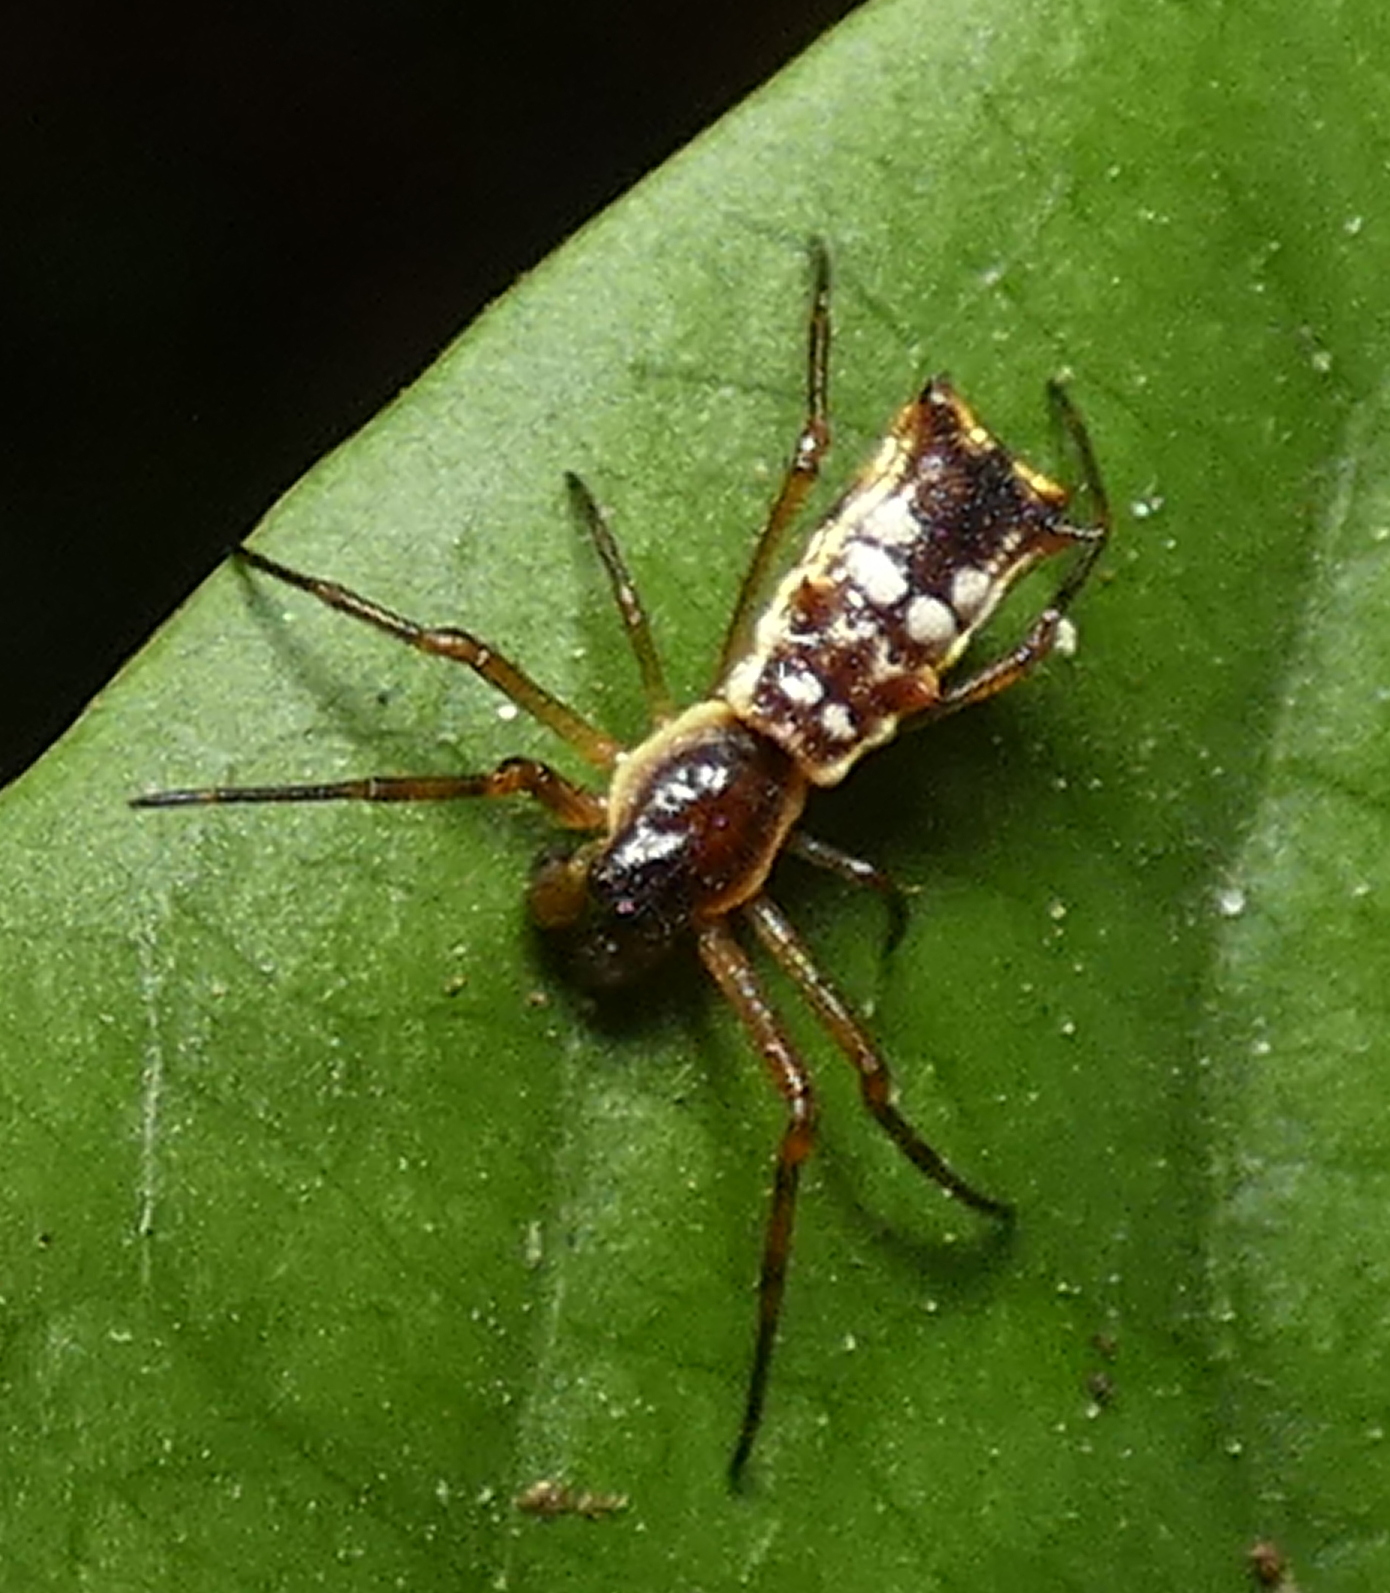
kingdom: Animalia
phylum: Arthropoda
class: Arachnida
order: Araneae
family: Araneidae
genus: Micrathena
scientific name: Micrathena fissispina
